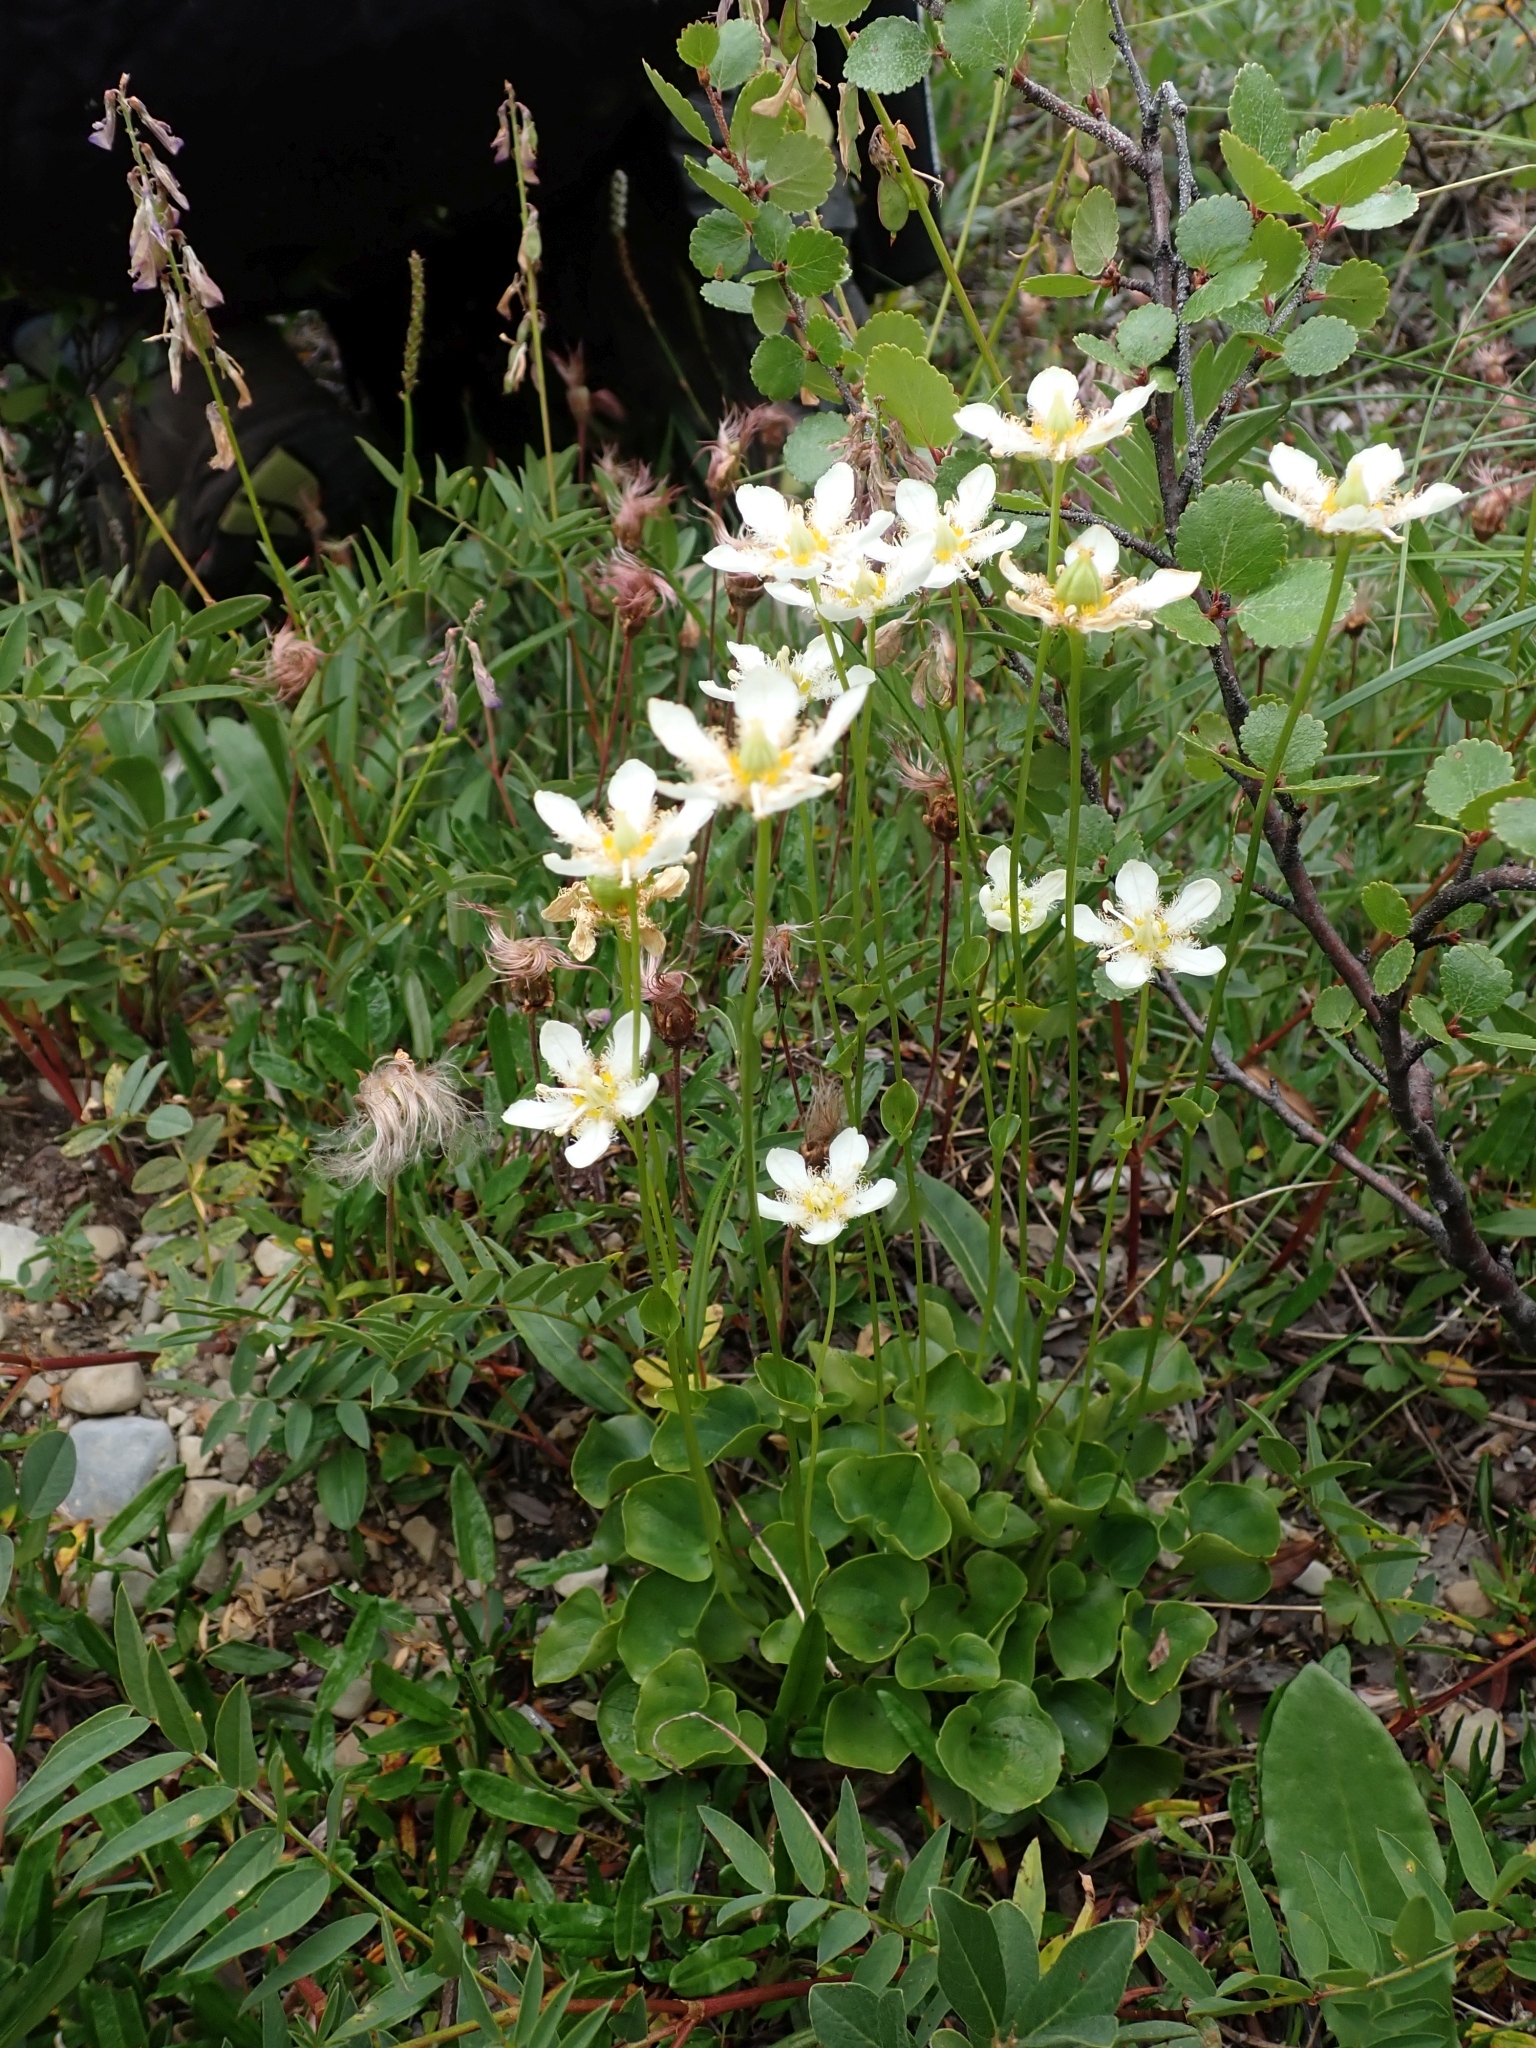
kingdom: Plantae
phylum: Tracheophyta
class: Magnoliopsida
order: Celastrales
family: Parnassiaceae
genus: Parnassia
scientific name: Parnassia fimbriata
